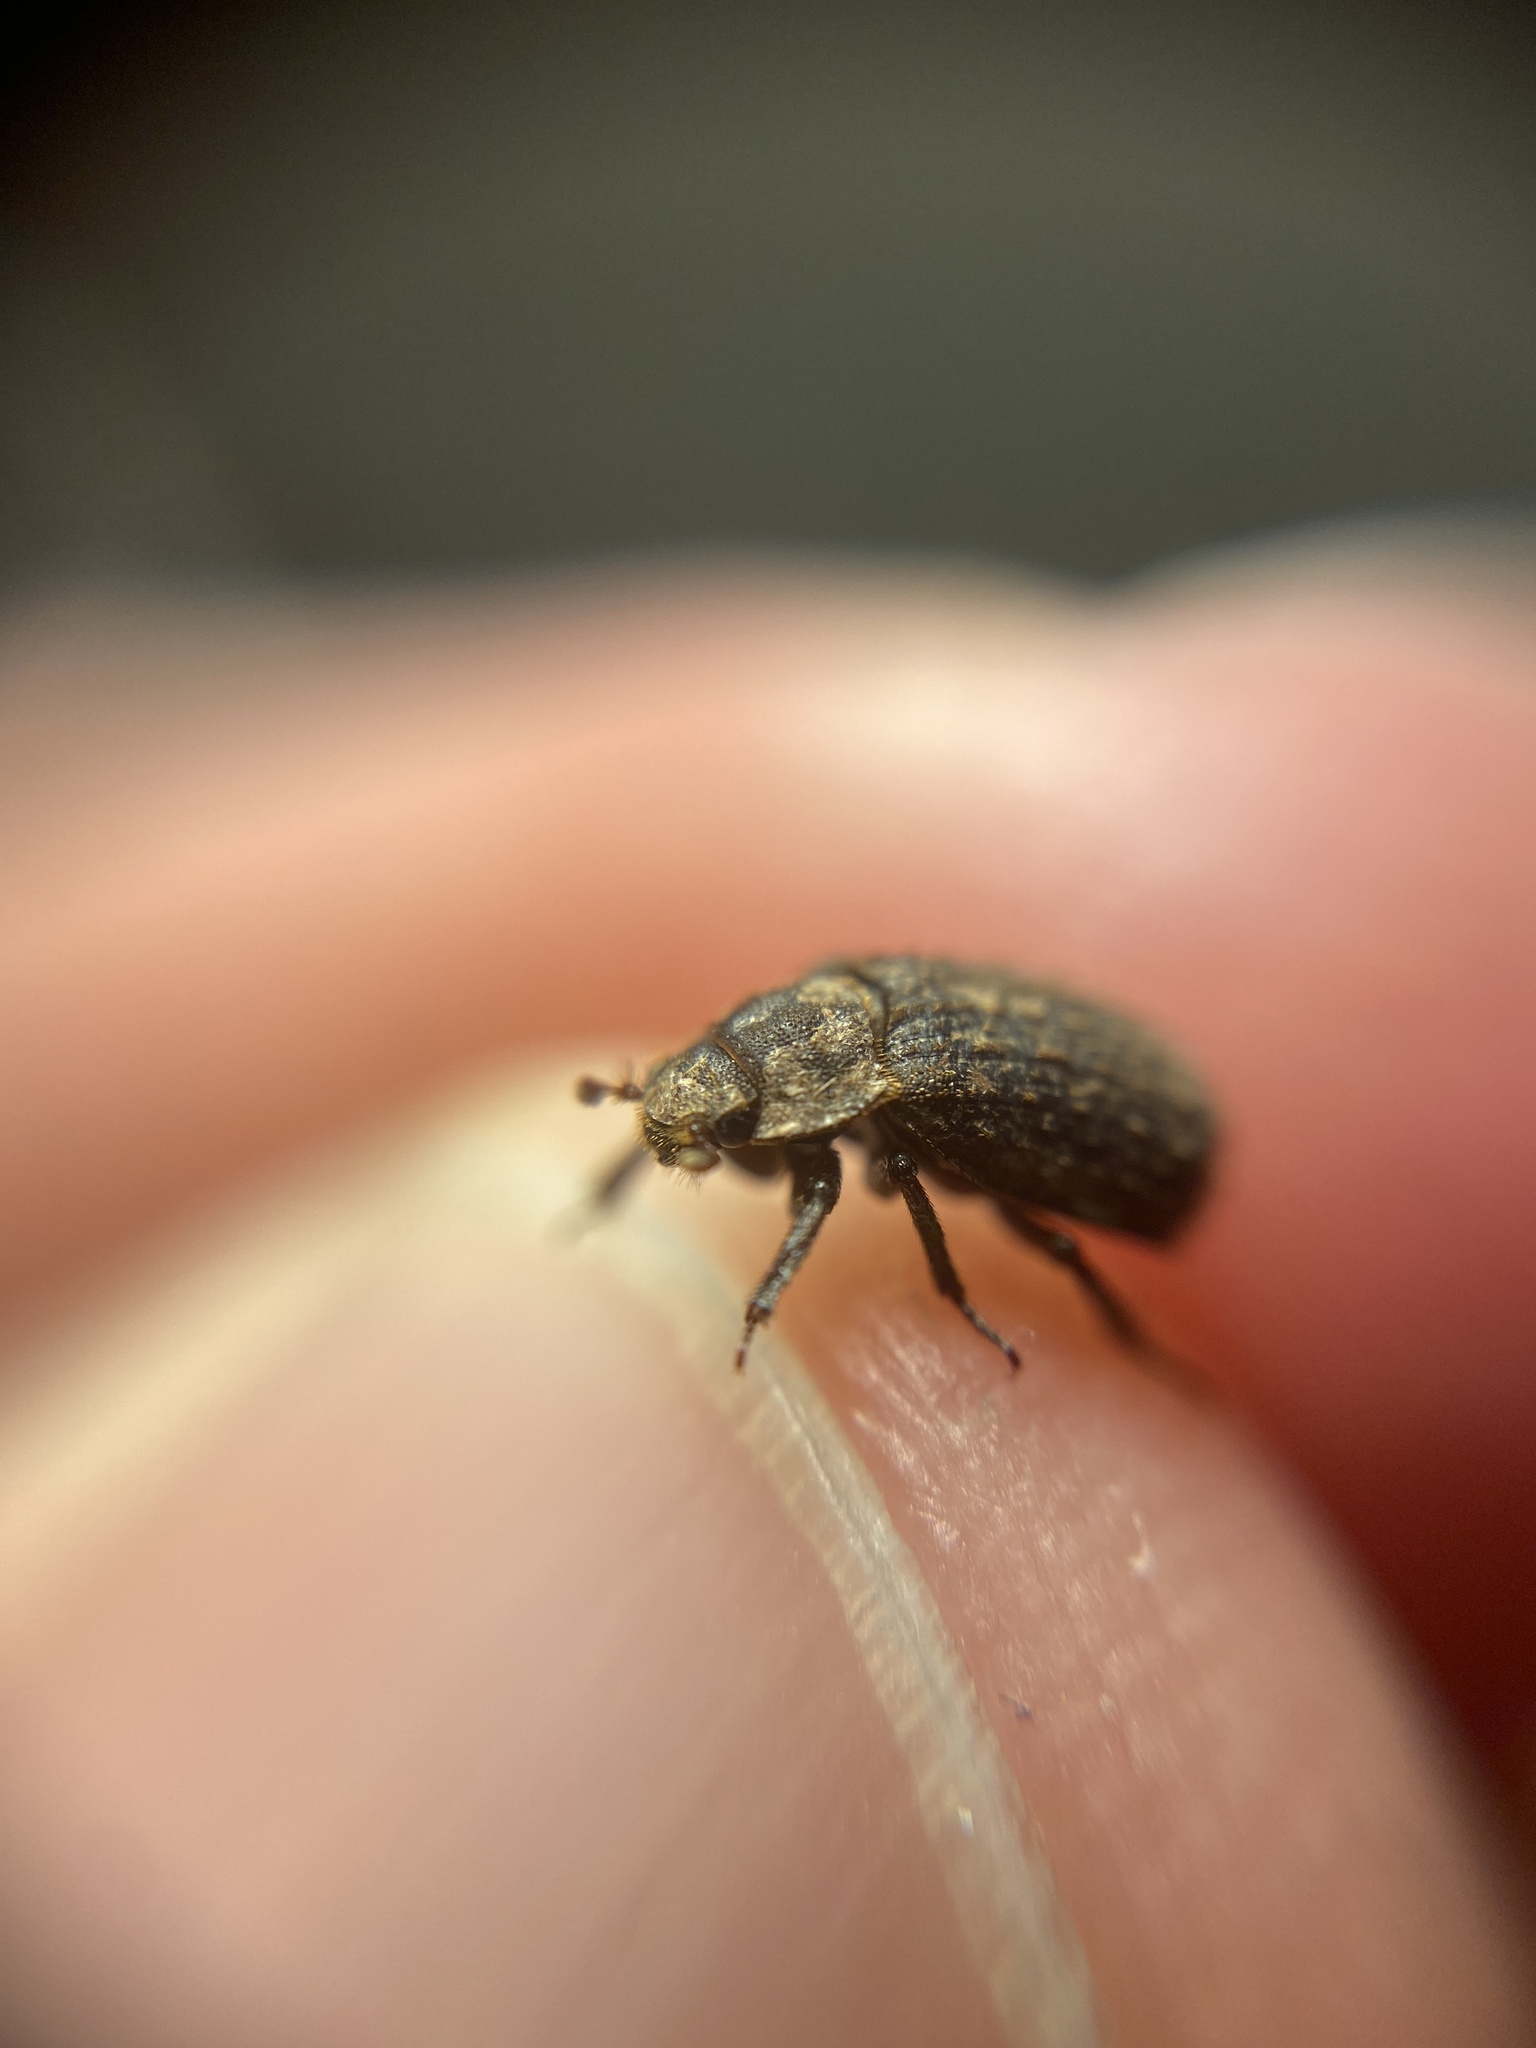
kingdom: Animalia
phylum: Arthropoda
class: Insecta
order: Coleoptera
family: Trogidae
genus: Trox
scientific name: Trox scaber
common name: Hide beetle
